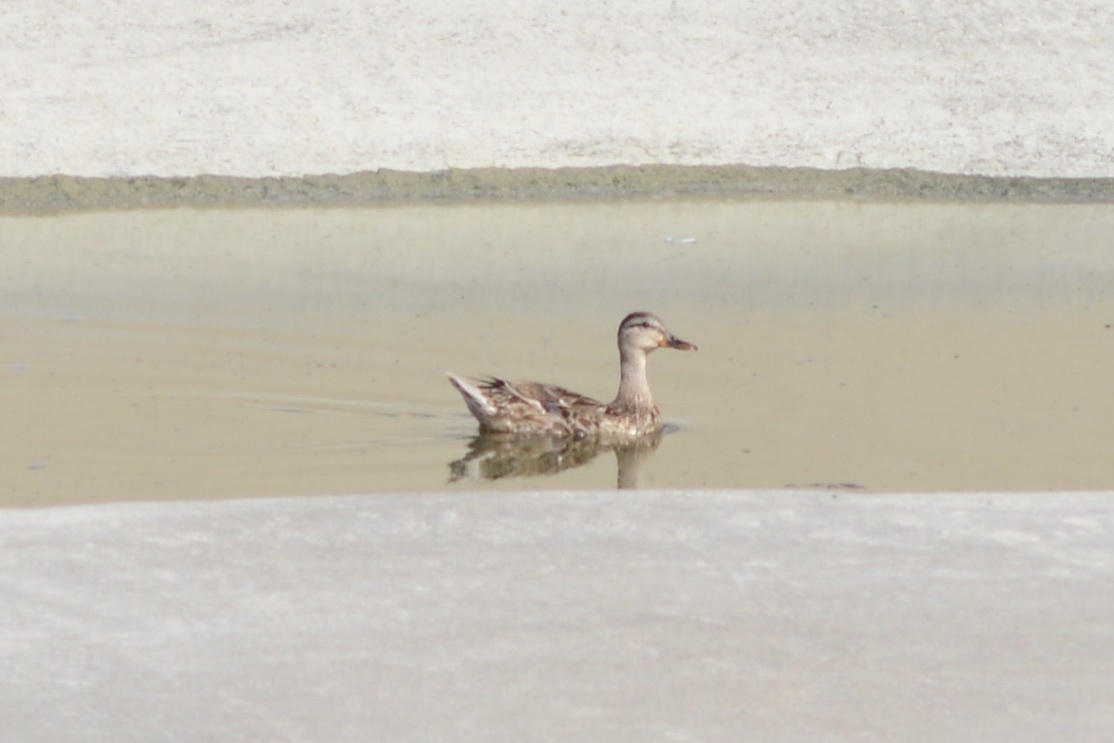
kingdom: Animalia
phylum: Chordata
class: Aves
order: Anseriformes
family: Anatidae
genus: Anas
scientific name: Anas platyrhynchos
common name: Mallard
